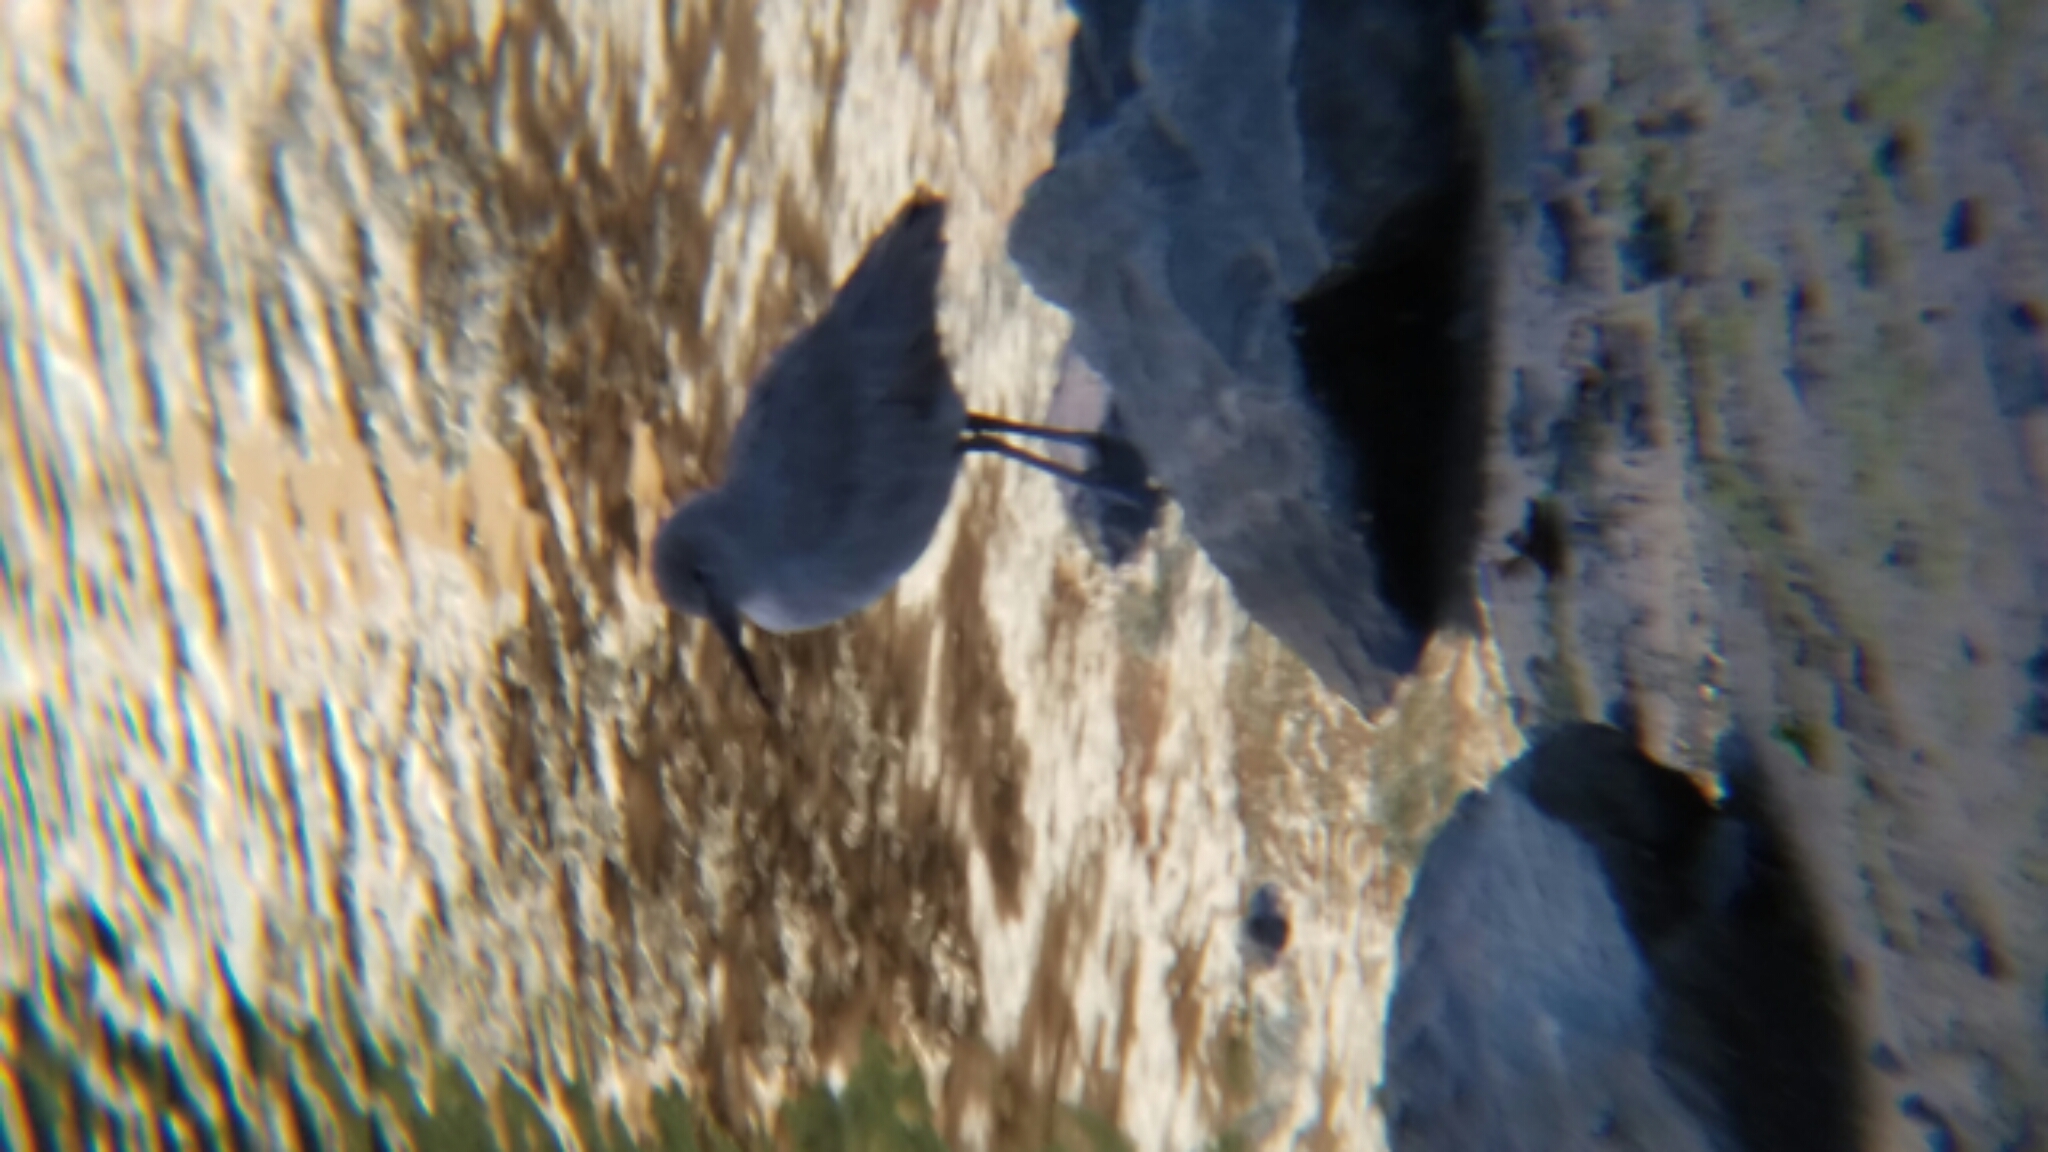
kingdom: Animalia
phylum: Chordata
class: Aves
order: Charadriiformes
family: Scolopacidae
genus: Tringa
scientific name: Tringa semipalmata
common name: Willet
